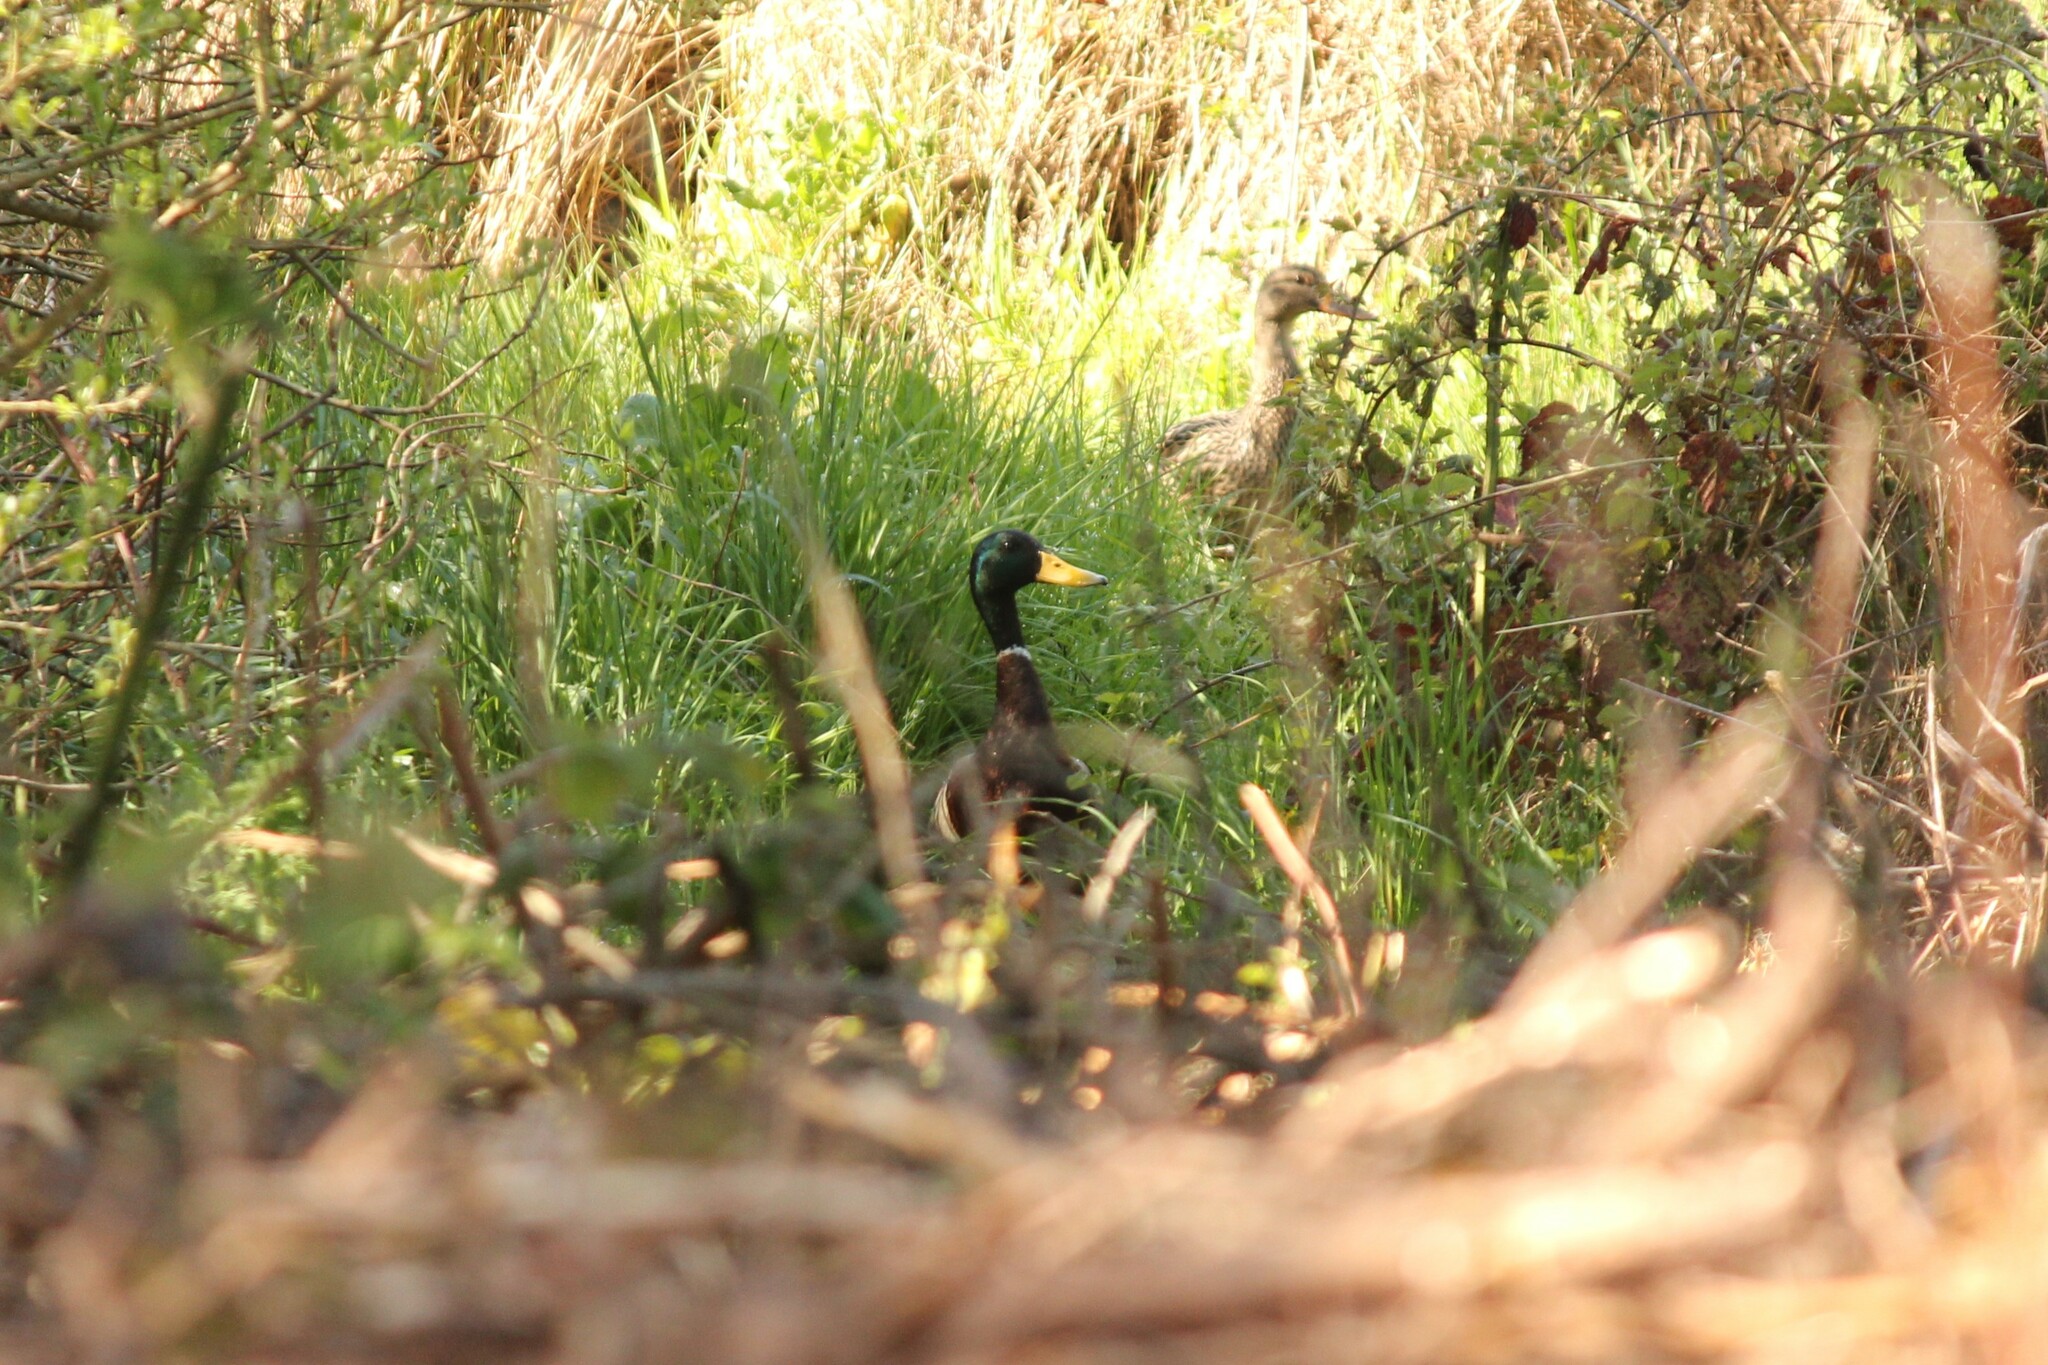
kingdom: Animalia
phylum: Chordata
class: Aves
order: Anseriformes
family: Anatidae
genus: Anas
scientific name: Anas platyrhynchos
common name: Mallard
